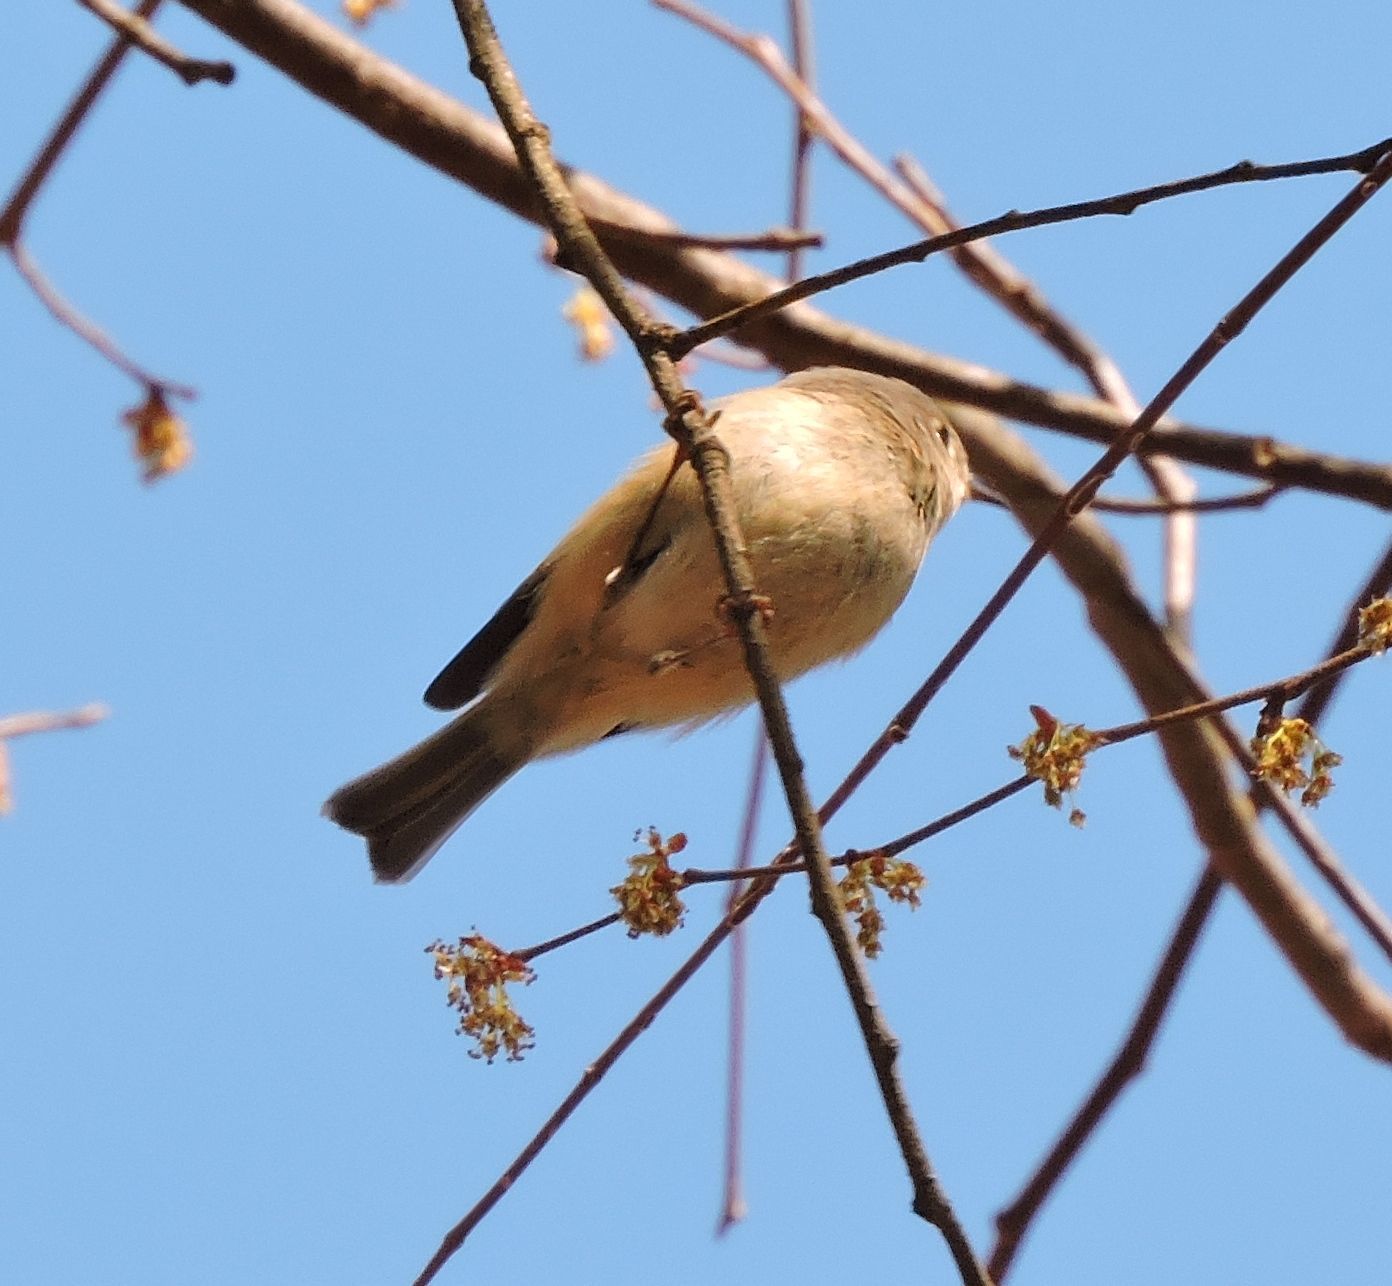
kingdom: Animalia
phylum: Chordata
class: Aves
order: Passeriformes
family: Regulidae
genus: Regulus
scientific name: Regulus calendula
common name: Ruby-crowned kinglet
